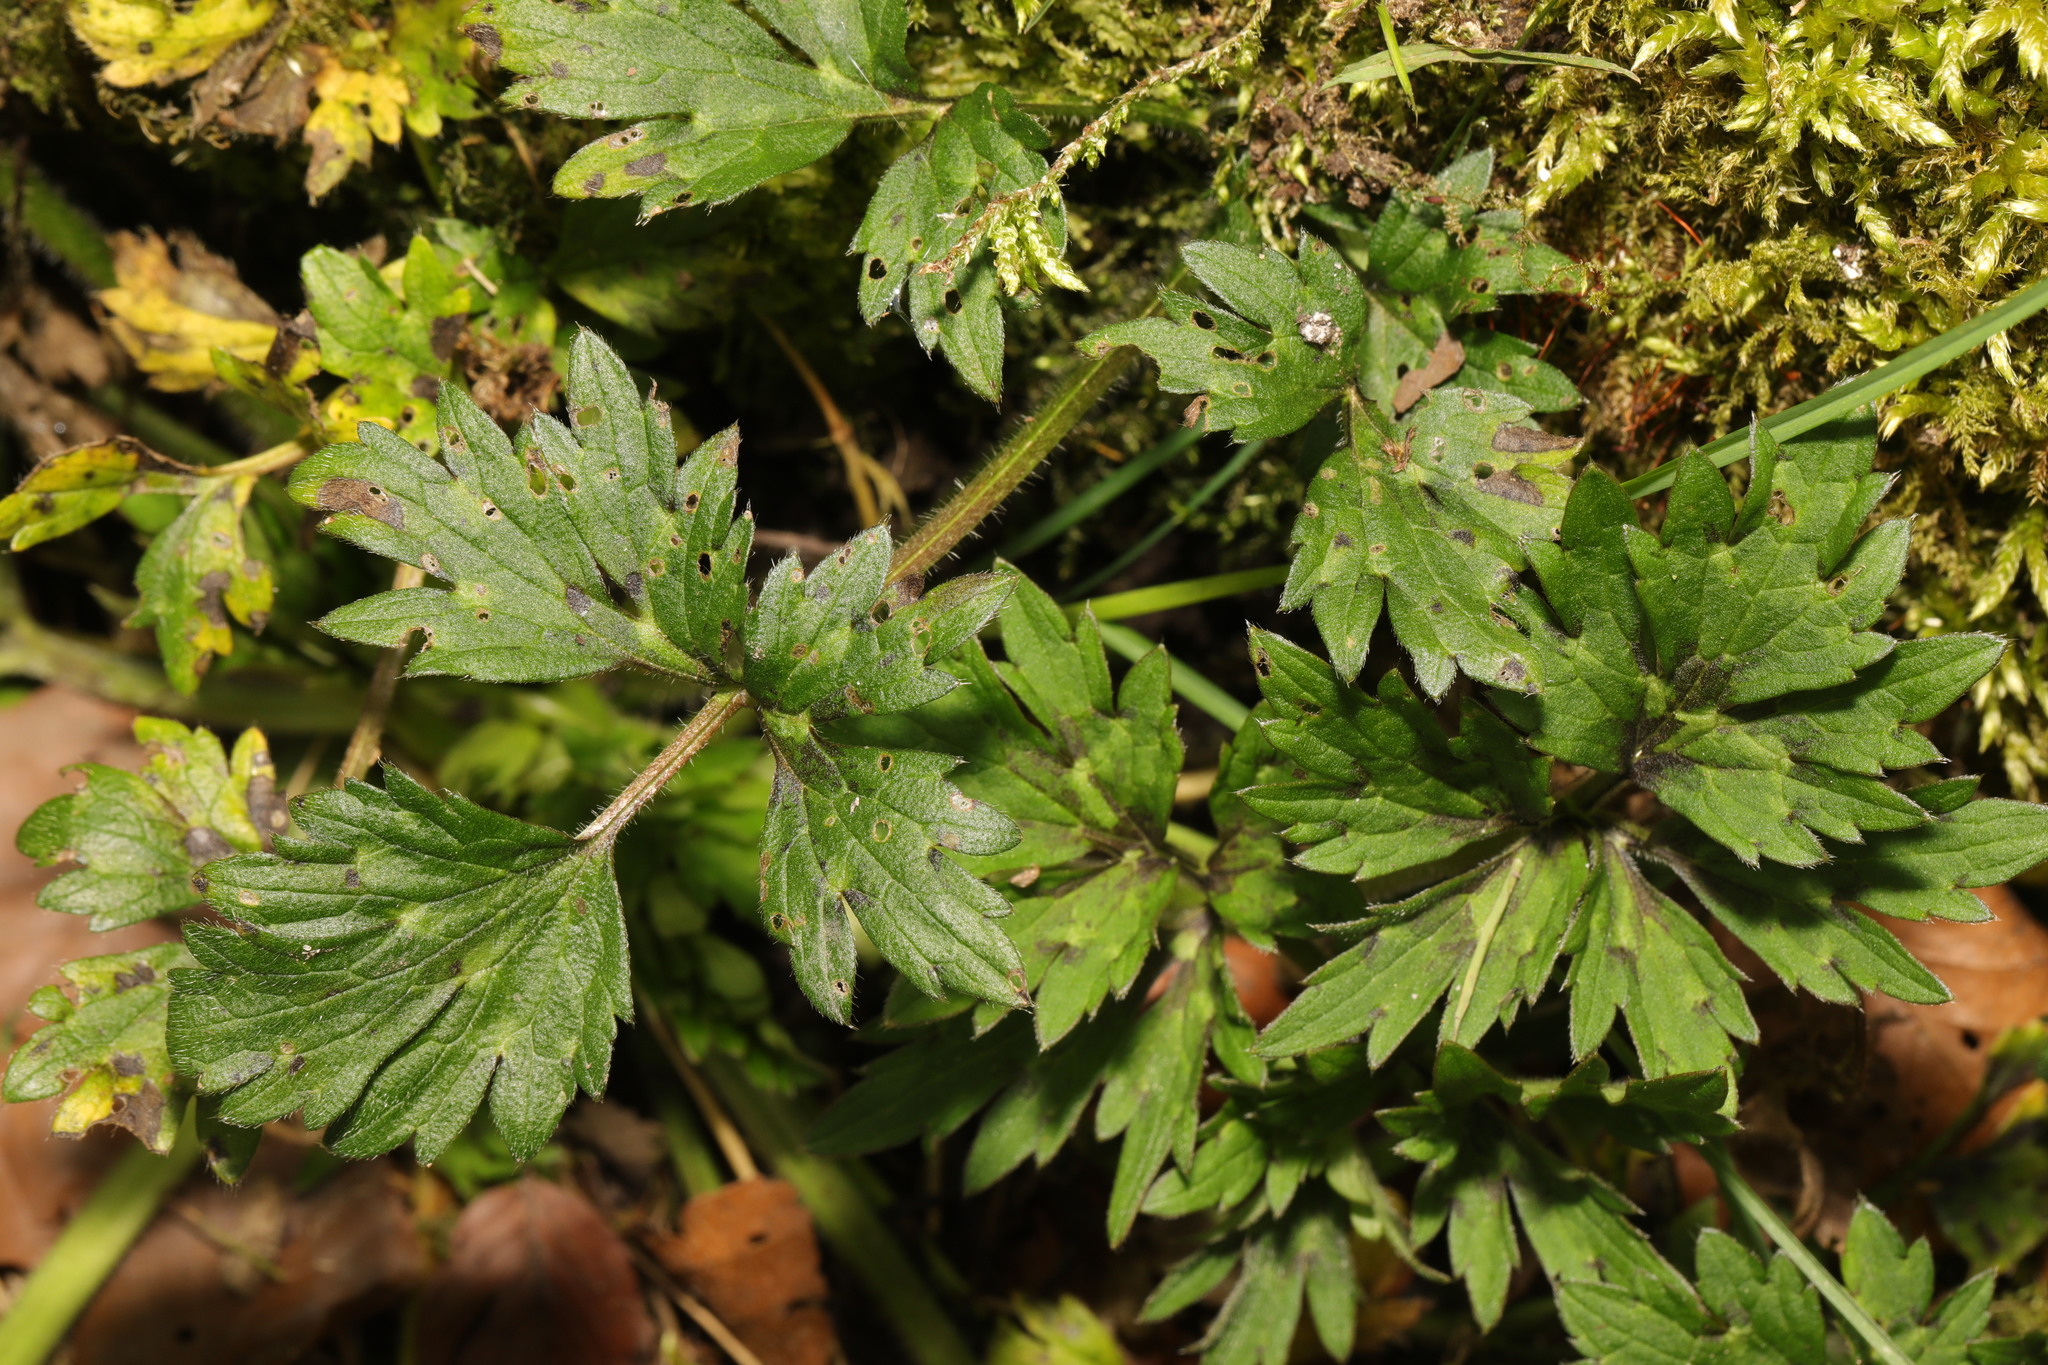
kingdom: Plantae
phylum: Tracheophyta
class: Magnoliopsida
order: Ranunculales
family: Ranunculaceae
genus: Ranunculus
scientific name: Ranunculus repens
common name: Creeping buttercup
